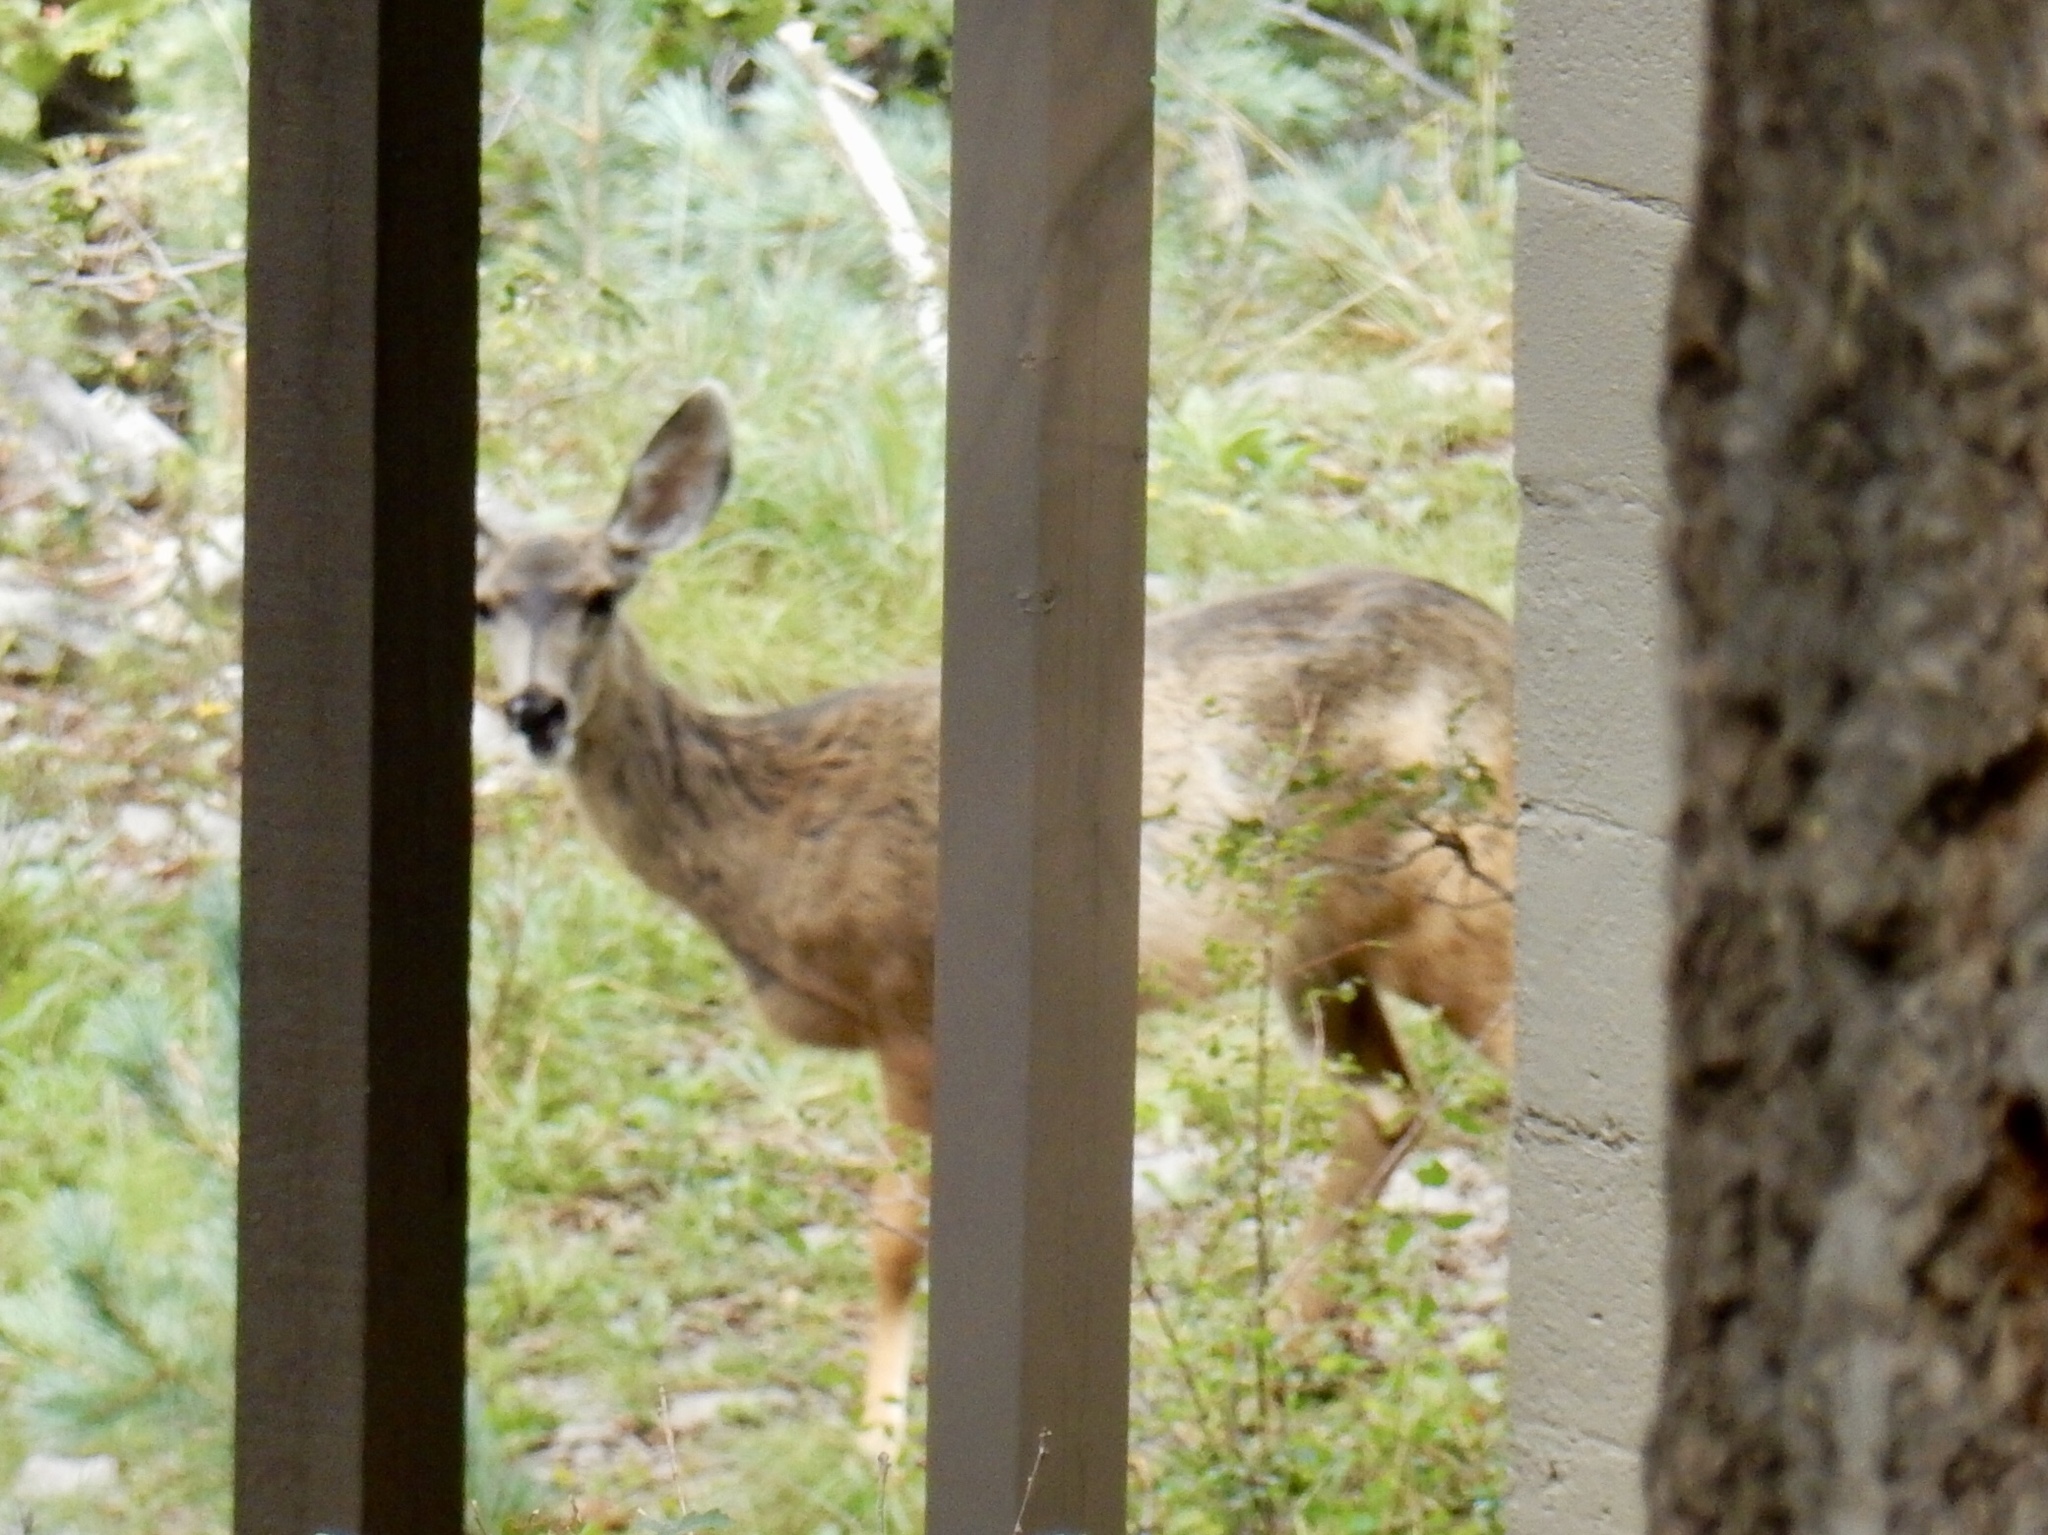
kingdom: Animalia
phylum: Chordata
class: Mammalia
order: Artiodactyla
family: Cervidae
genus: Odocoileus
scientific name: Odocoileus hemionus
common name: Mule deer
